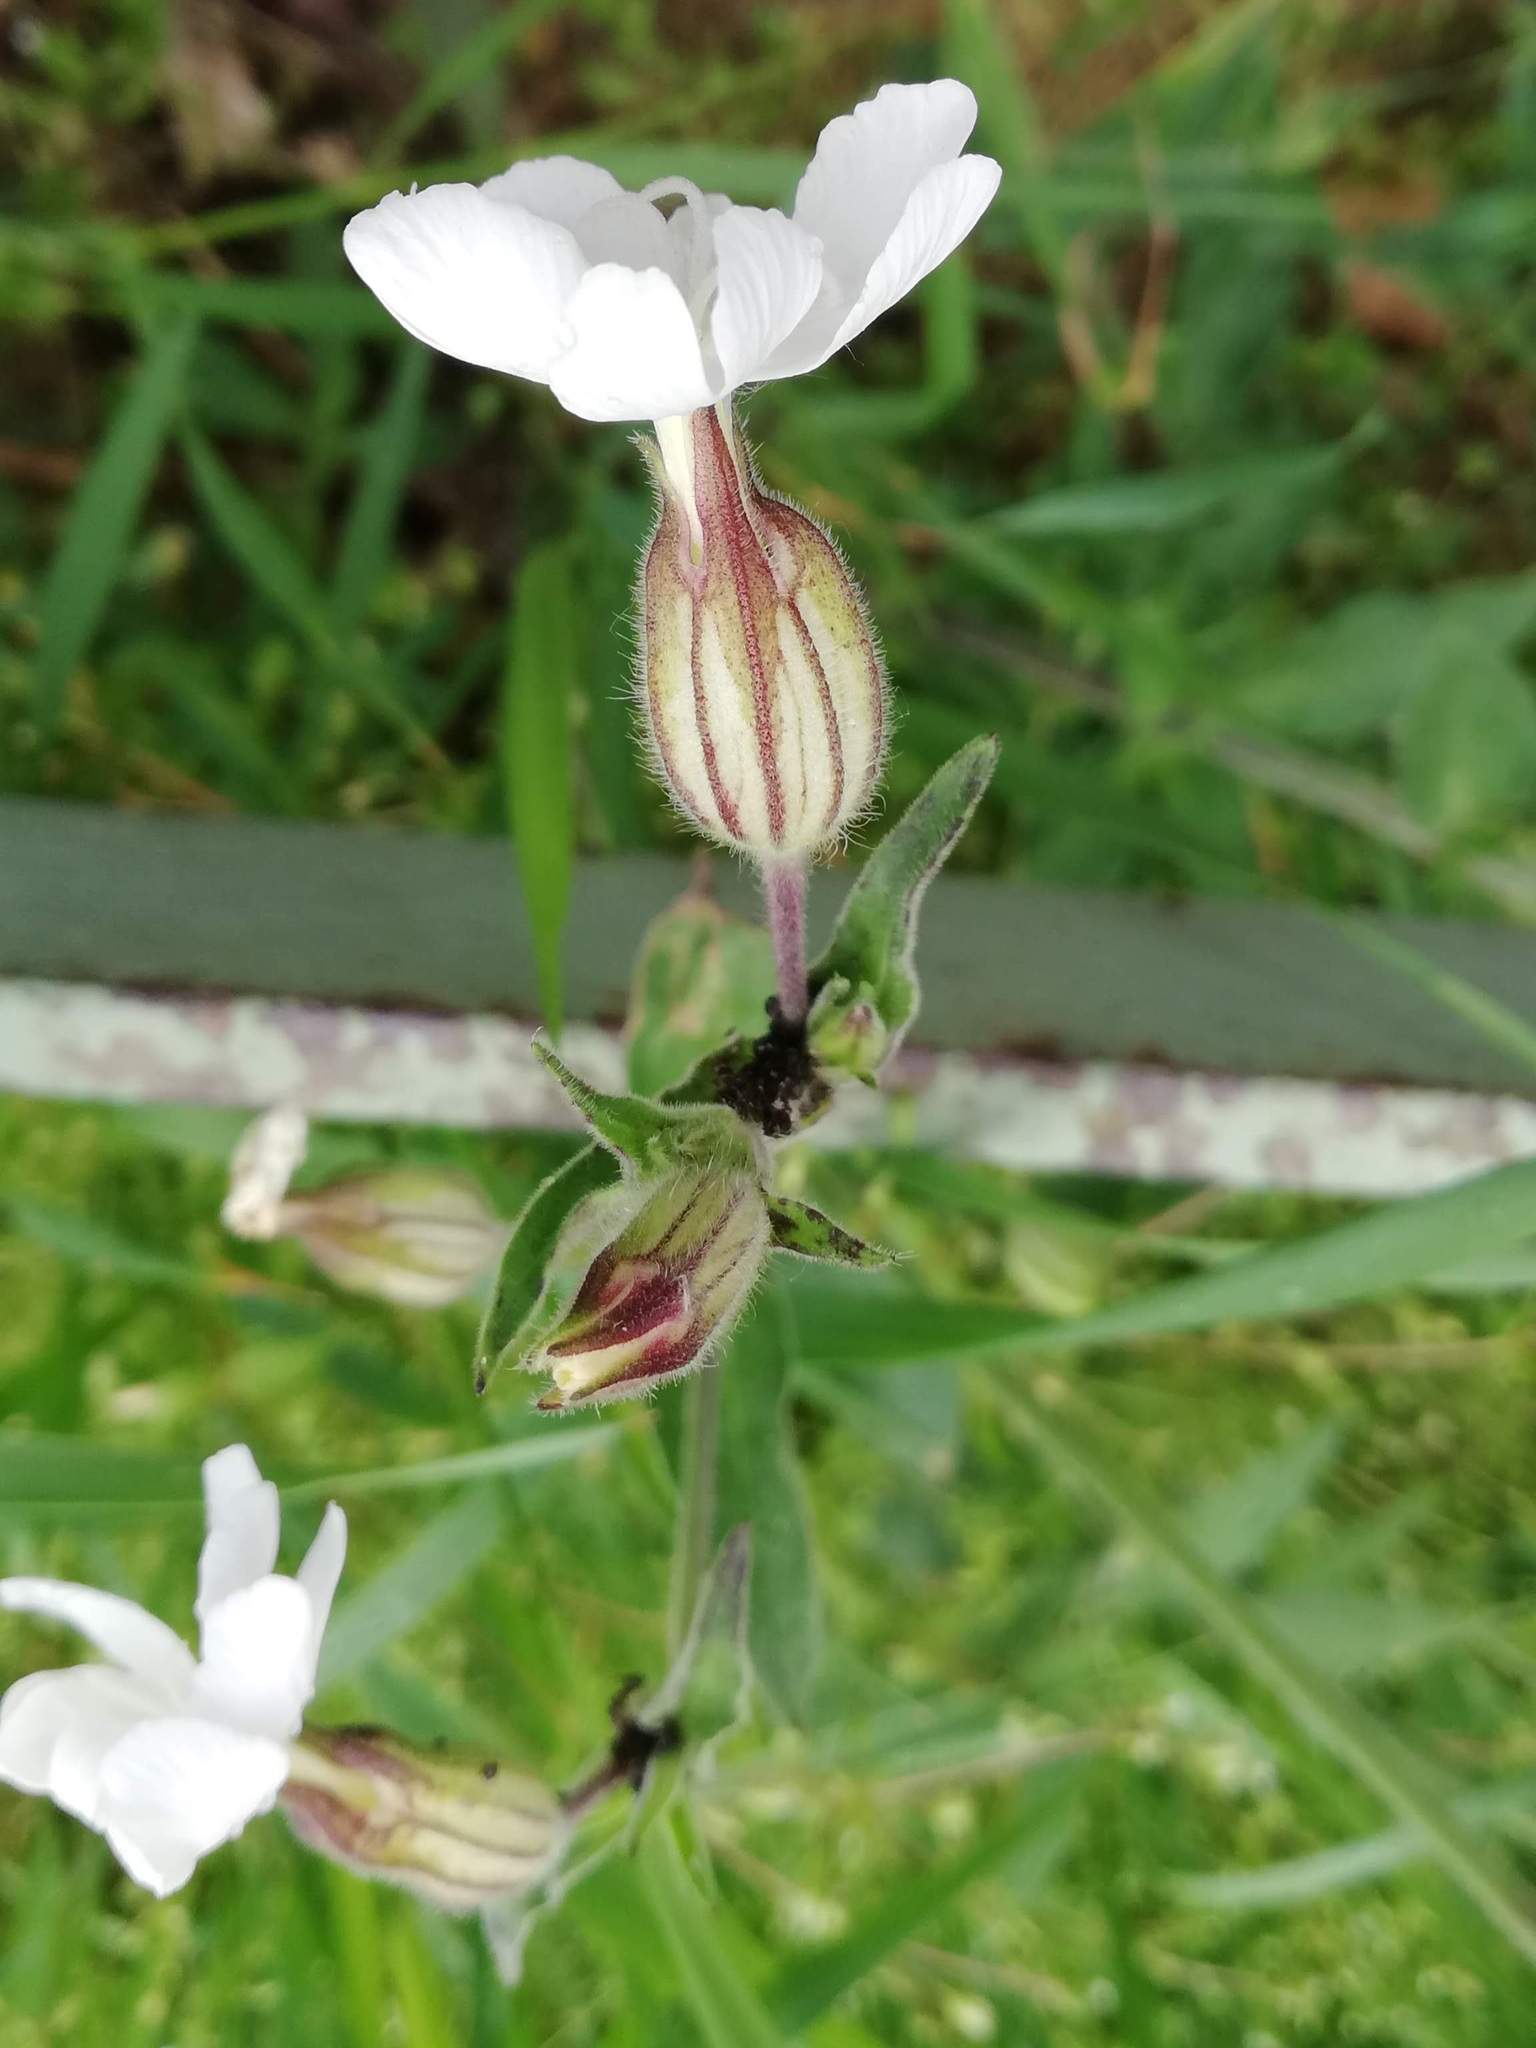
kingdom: Plantae
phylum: Tracheophyta
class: Magnoliopsida
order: Caryophyllales
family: Caryophyllaceae
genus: Silene
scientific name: Silene latifolia
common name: White campion
